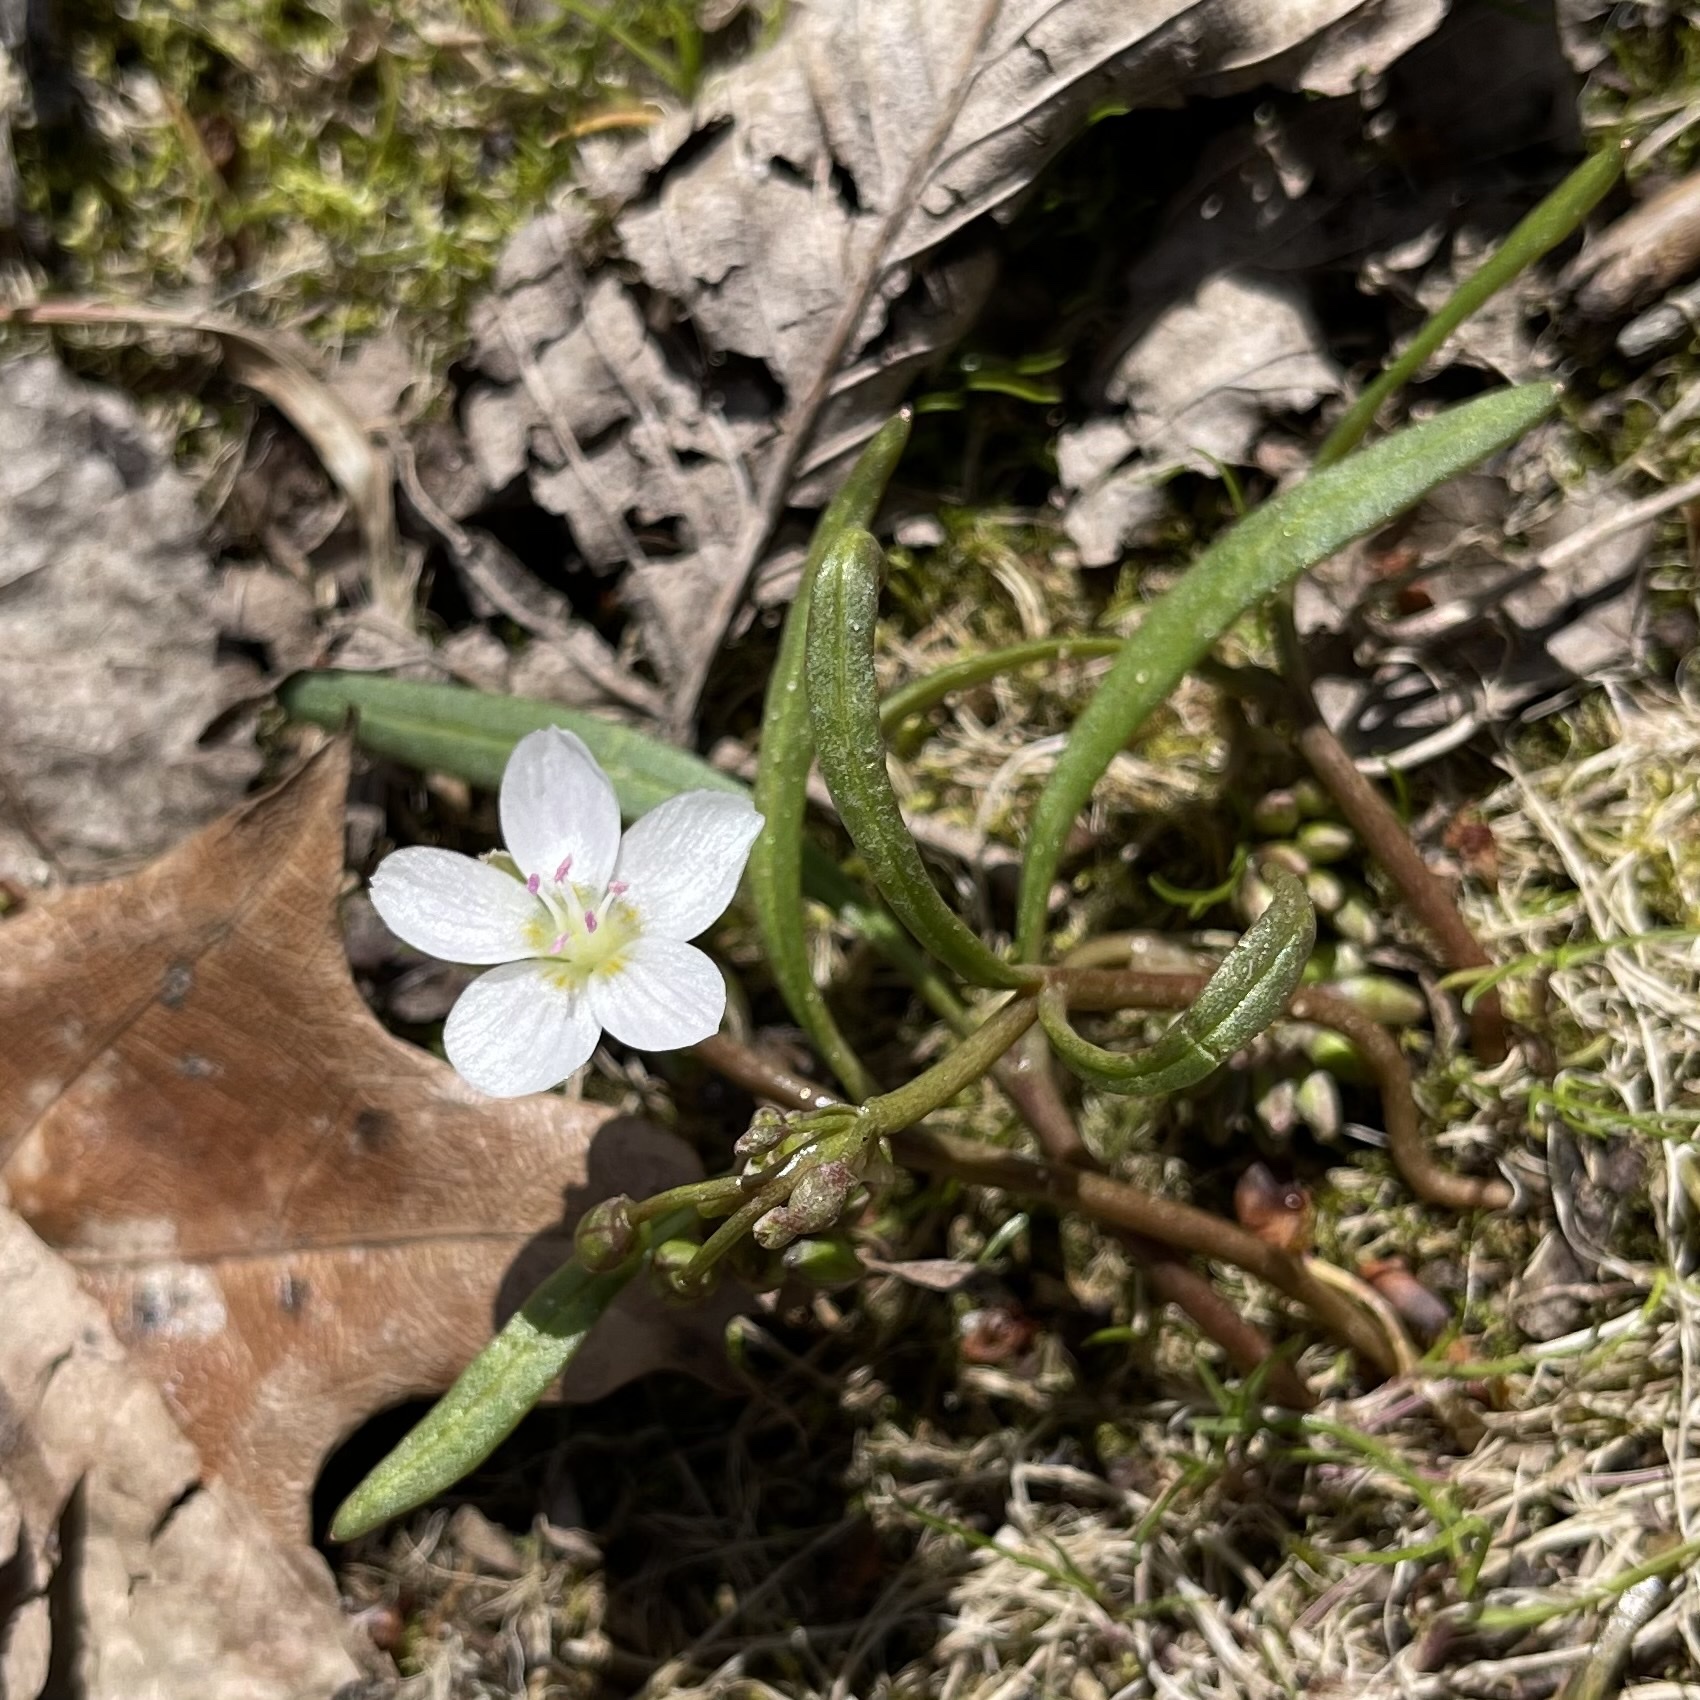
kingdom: Plantae
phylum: Tracheophyta
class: Magnoliopsida
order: Caryophyllales
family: Montiaceae
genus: Claytonia
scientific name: Claytonia virginica
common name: Virginia springbeauty
